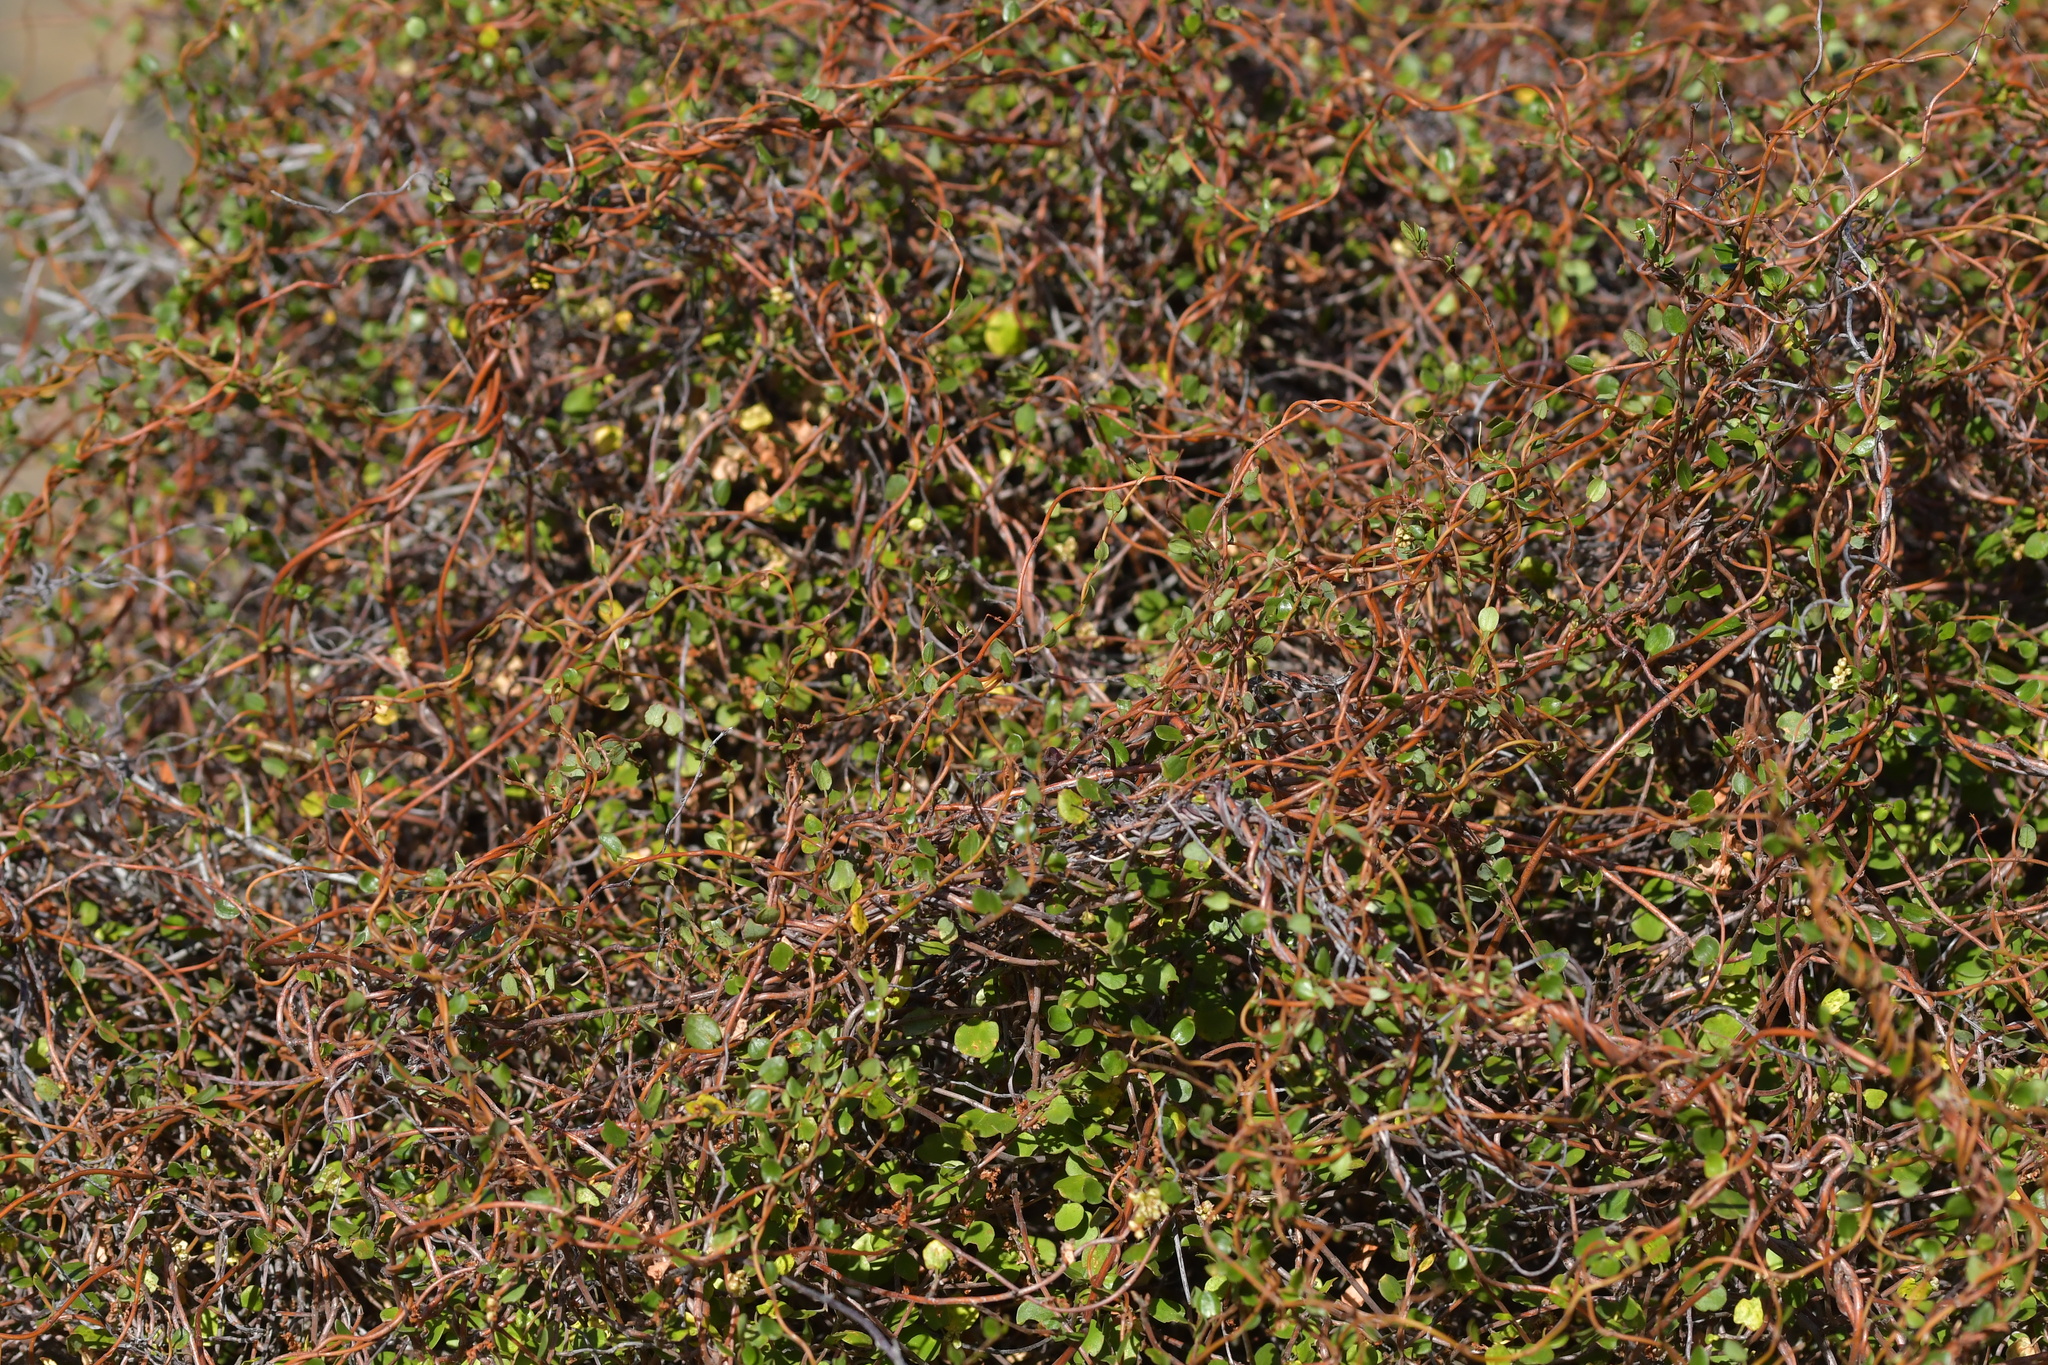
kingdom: Plantae
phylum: Tracheophyta
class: Magnoliopsida
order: Caryophyllales
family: Polygonaceae
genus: Muehlenbeckia
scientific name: Muehlenbeckia complexa
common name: Wireplant
